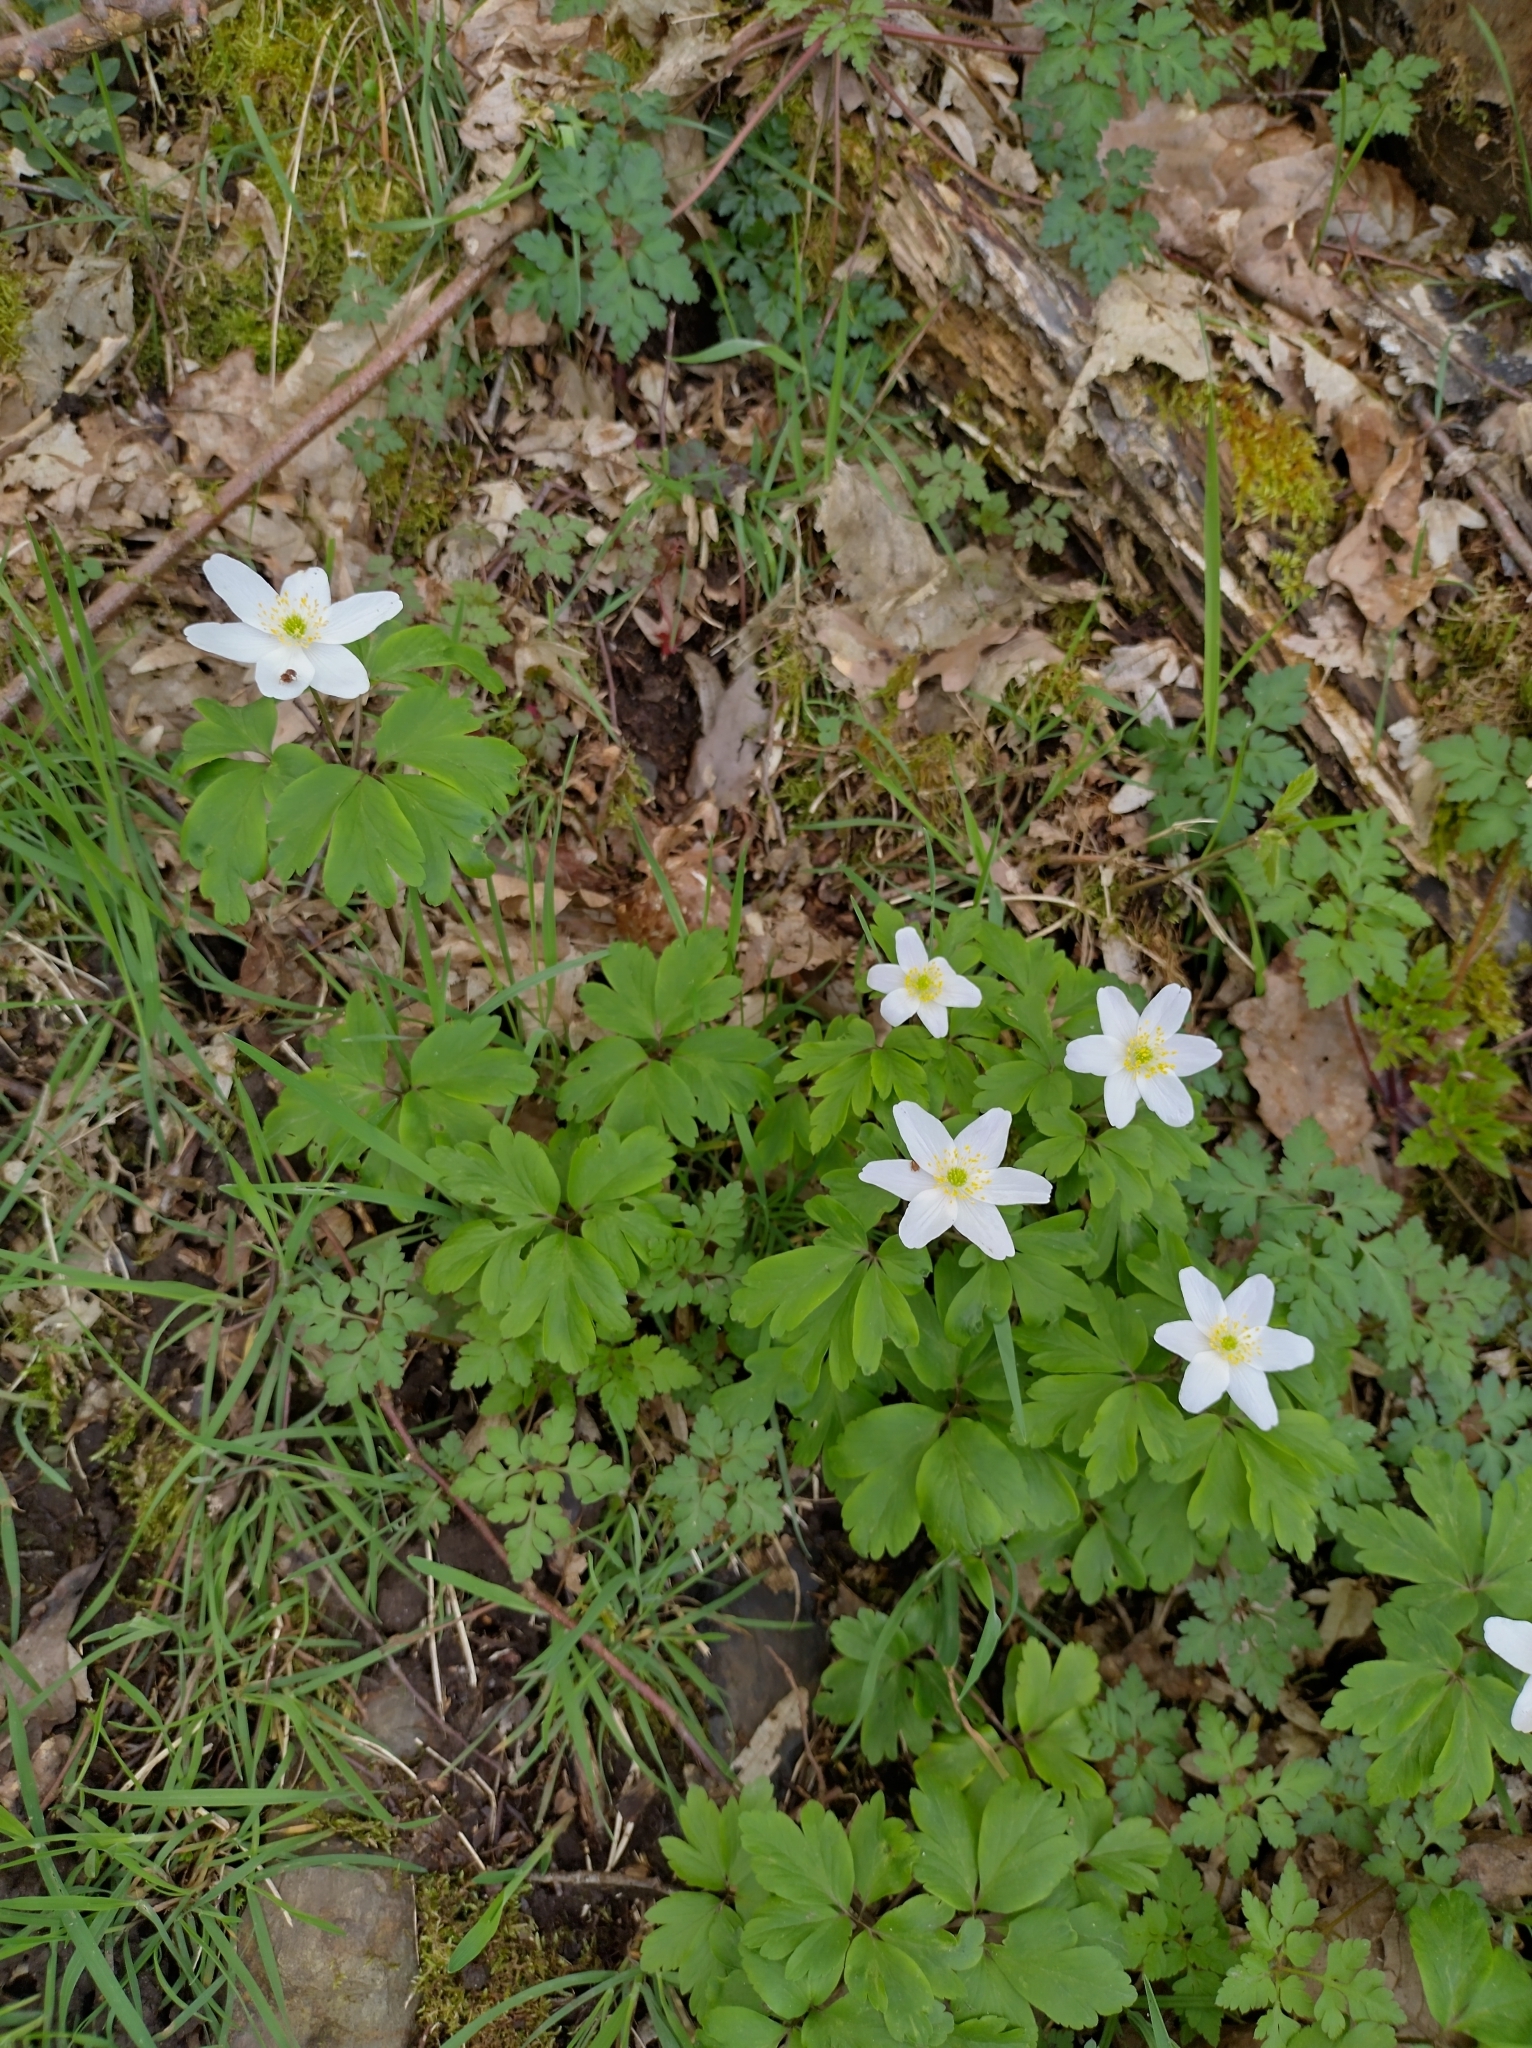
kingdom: Plantae
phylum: Tracheophyta
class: Magnoliopsida
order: Ranunculales
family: Ranunculaceae
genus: Anemone
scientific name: Anemone nemorosa
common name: Wood anemone
